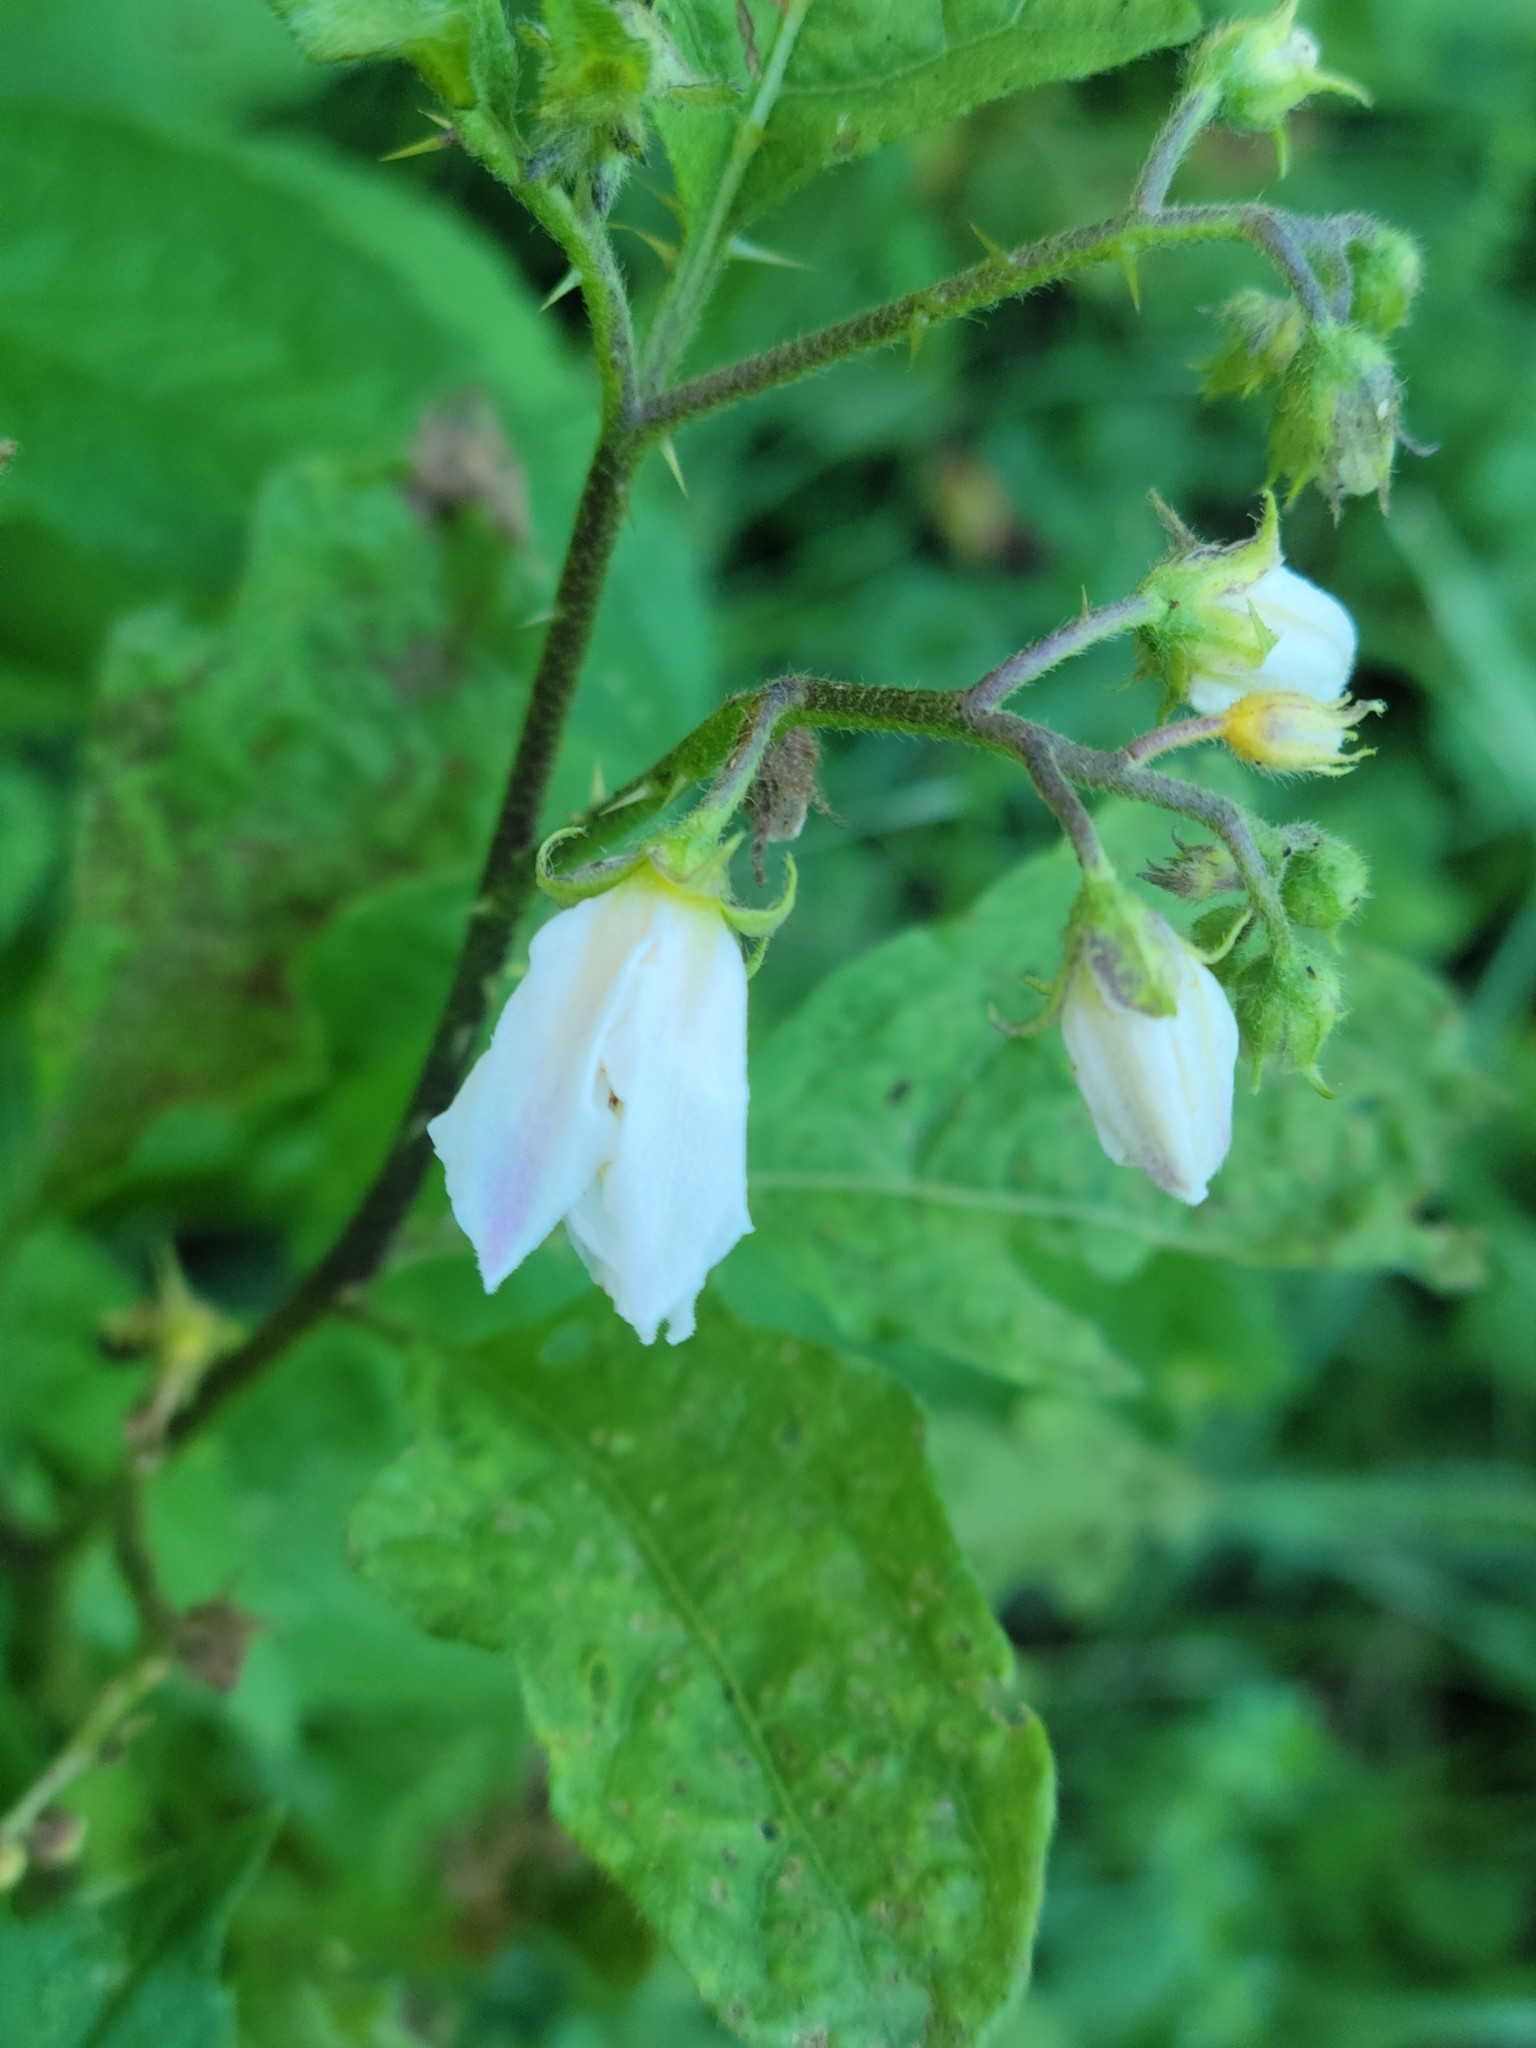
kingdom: Plantae
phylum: Tracheophyta
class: Magnoliopsida
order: Solanales
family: Solanaceae
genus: Solanum
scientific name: Solanum carolinense
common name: Horse-nettle
